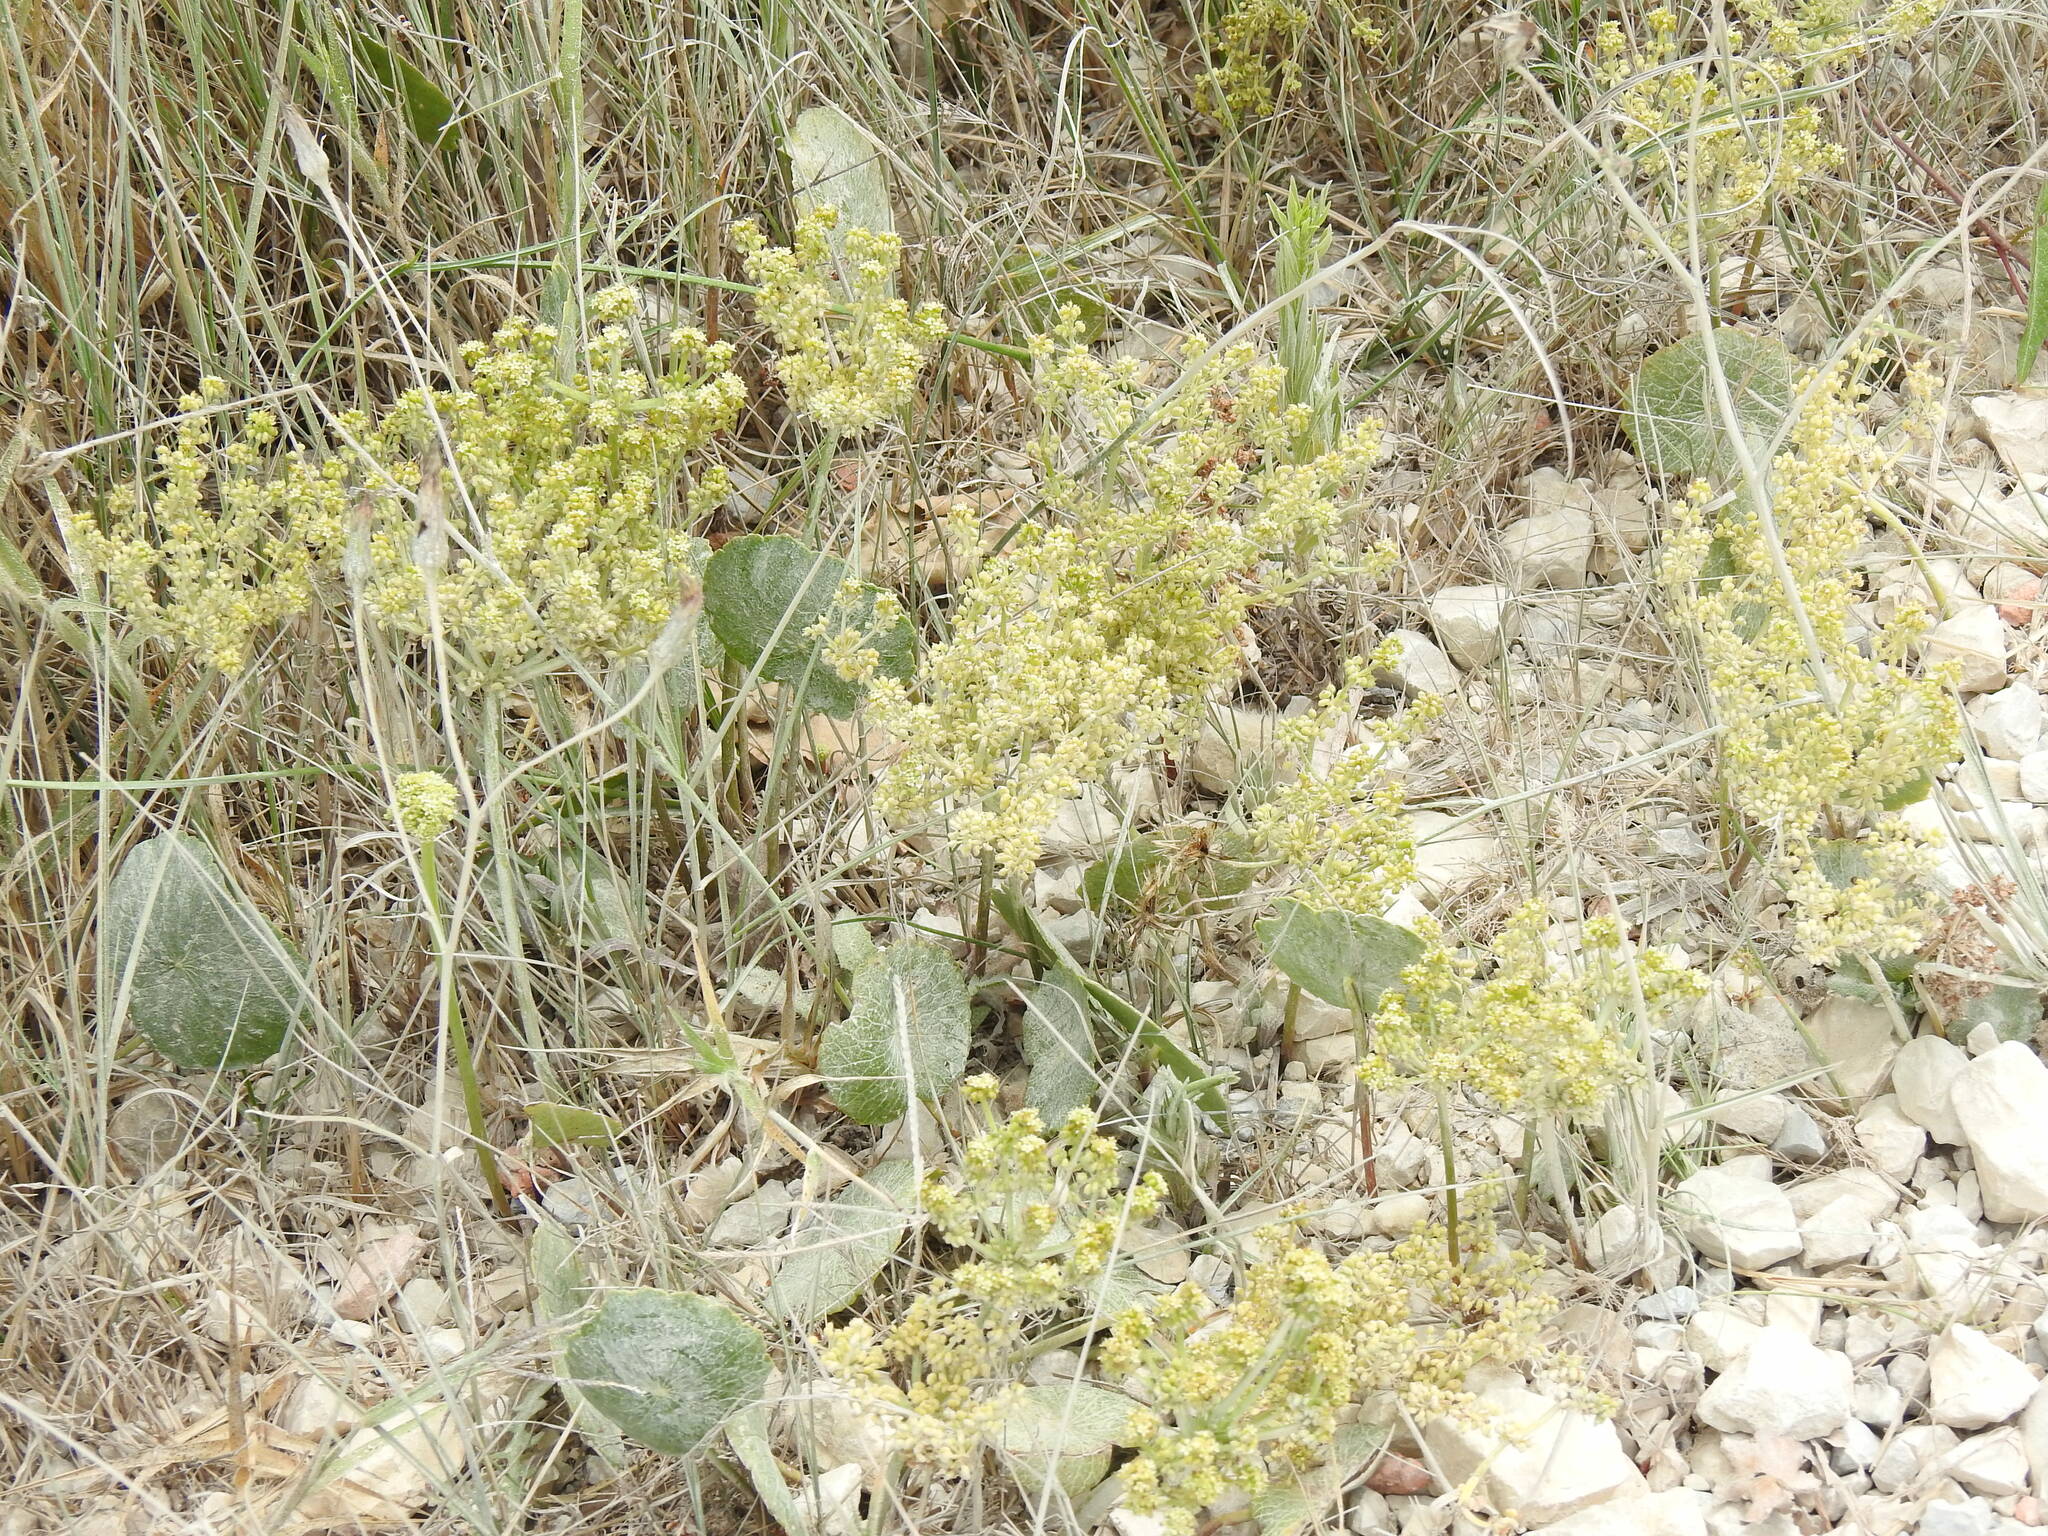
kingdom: Plantae
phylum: Tracheophyta
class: Magnoliopsida
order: Apiales
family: Araliaceae
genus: Hydrocotyle
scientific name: Hydrocotyle bonariensis
